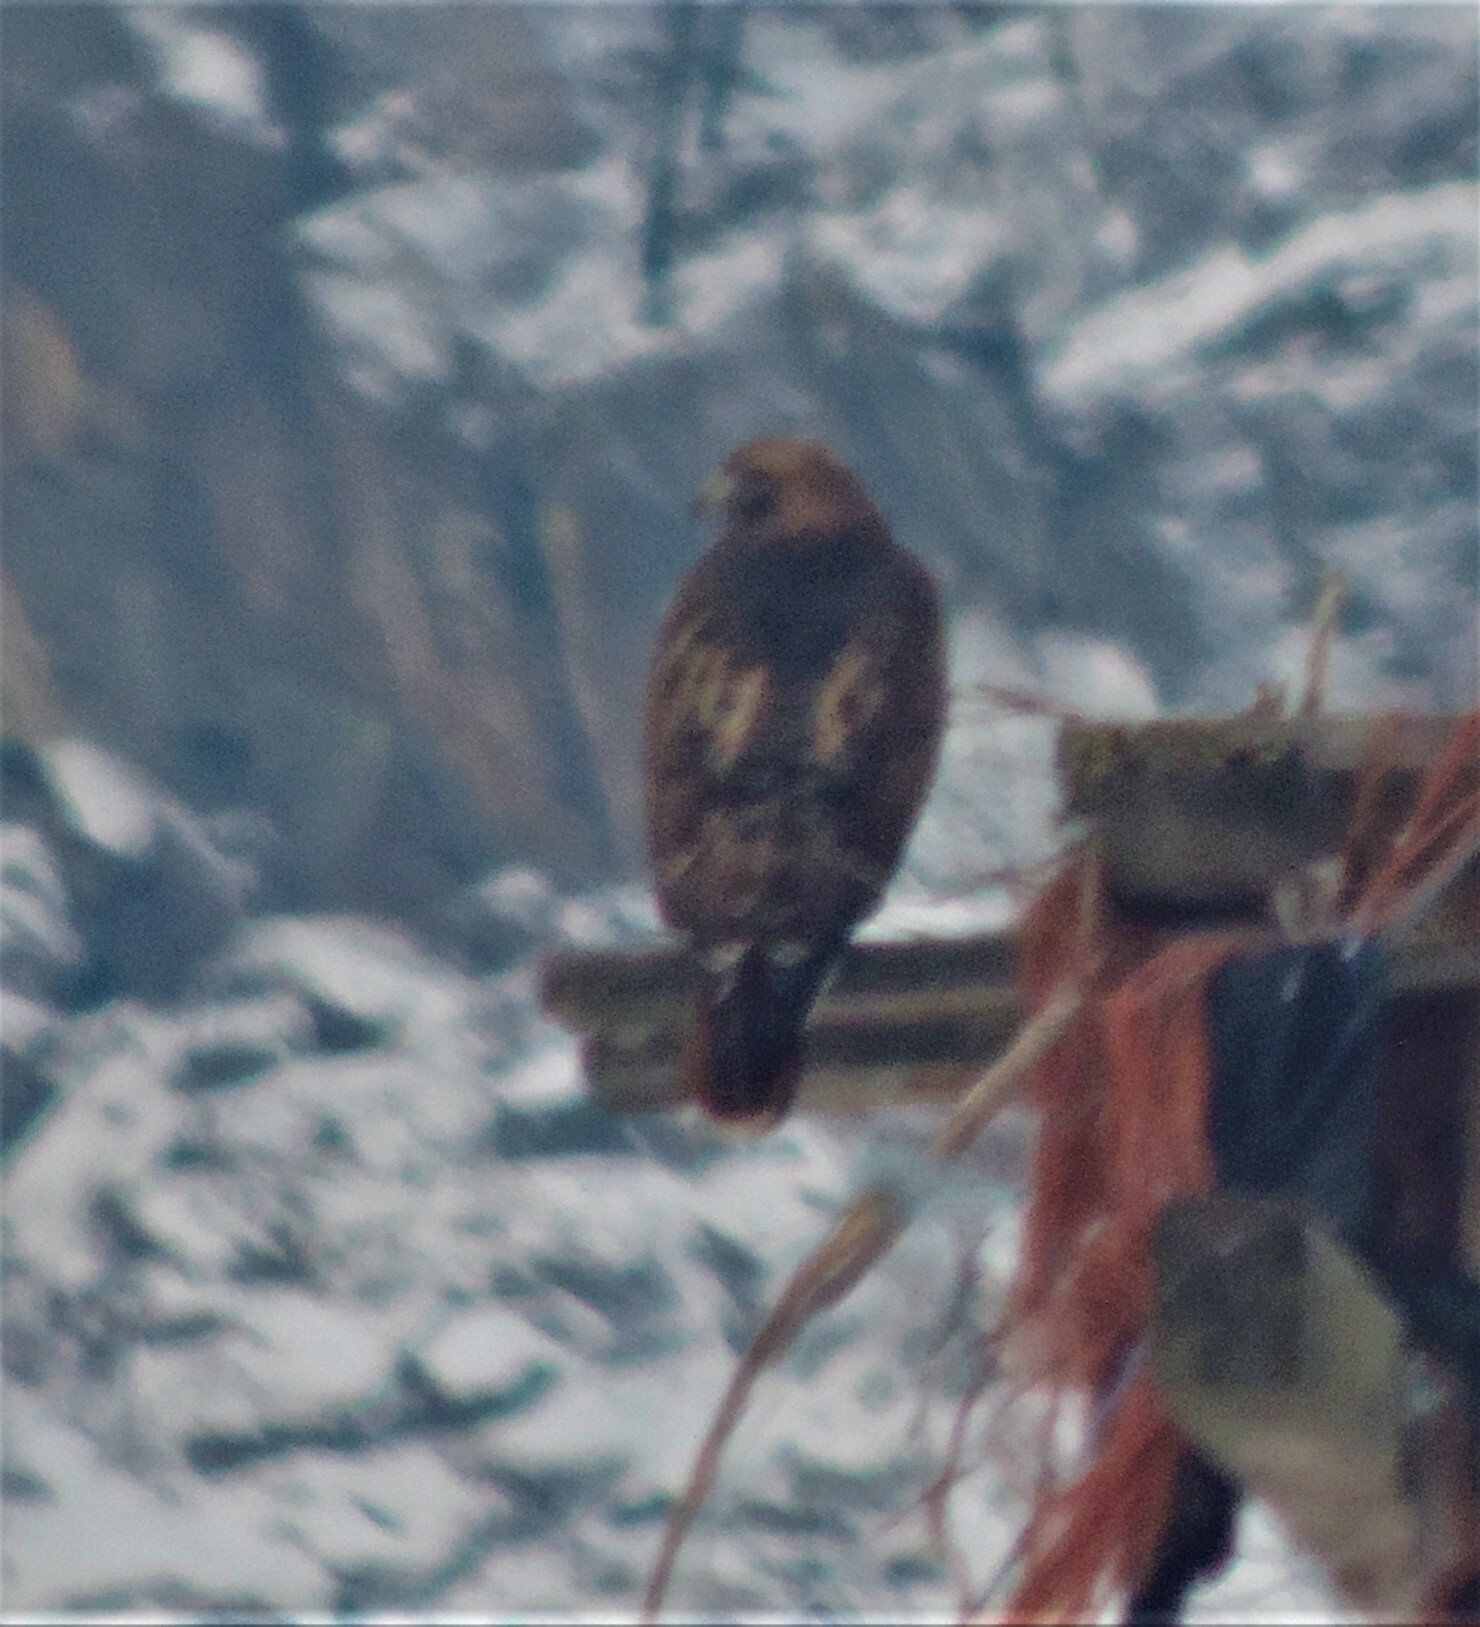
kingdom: Animalia
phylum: Chordata
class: Aves
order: Accipitriformes
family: Accipitridae
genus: Buteo
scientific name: Buteo jamaicensis
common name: Red-tailed hawk
